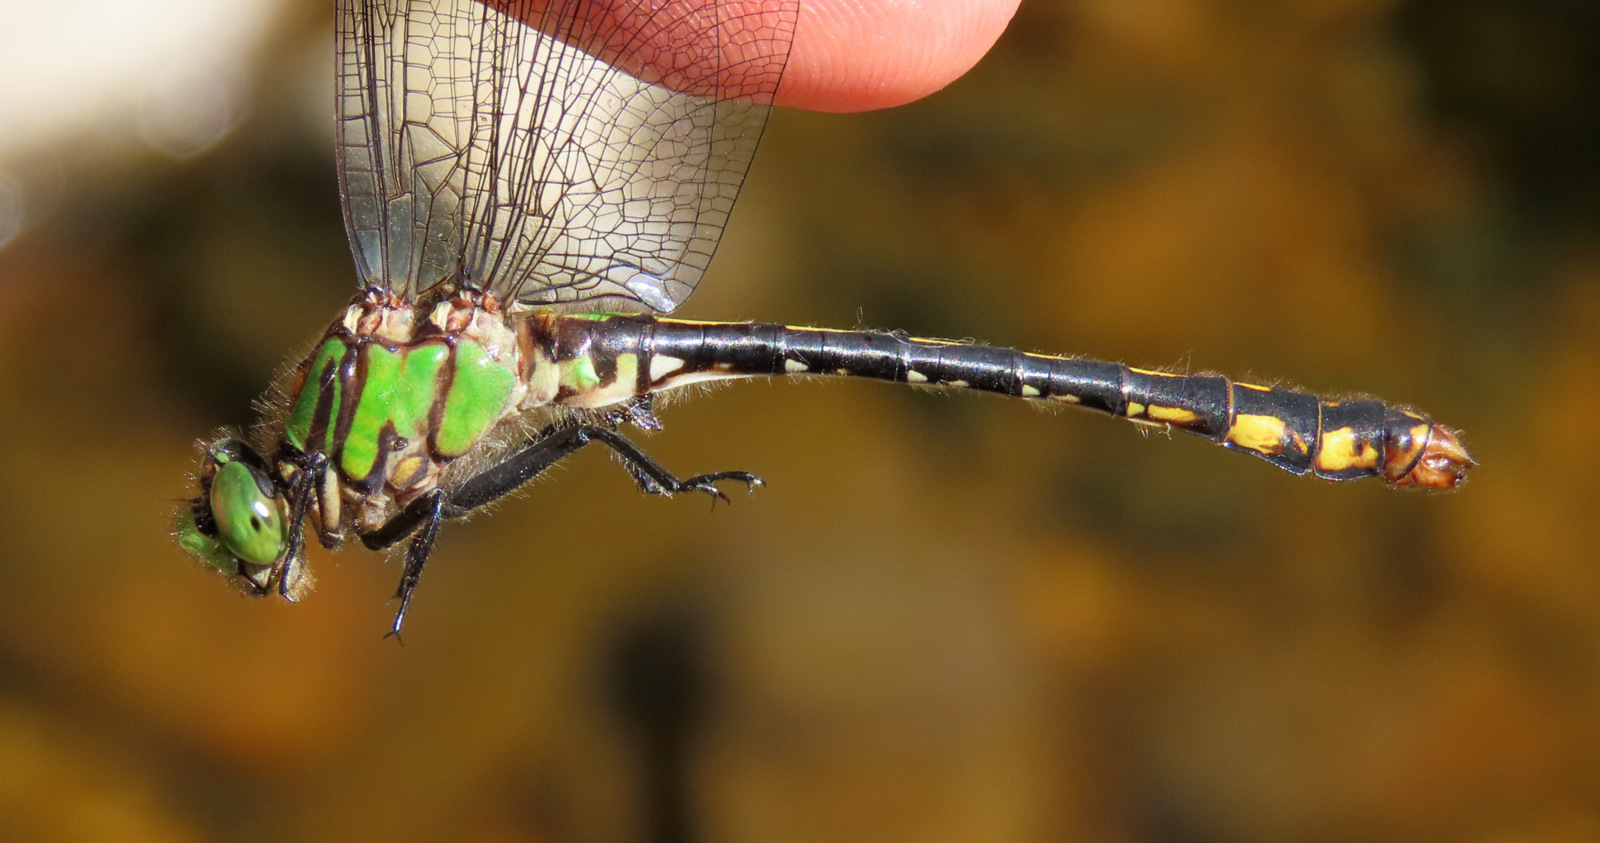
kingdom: Animalia
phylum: Arthropoda
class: Insecta
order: Odonata
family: Gomphidae
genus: Ophiogomphus
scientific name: Ophiogomphus mainensis
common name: Maine snaketail
